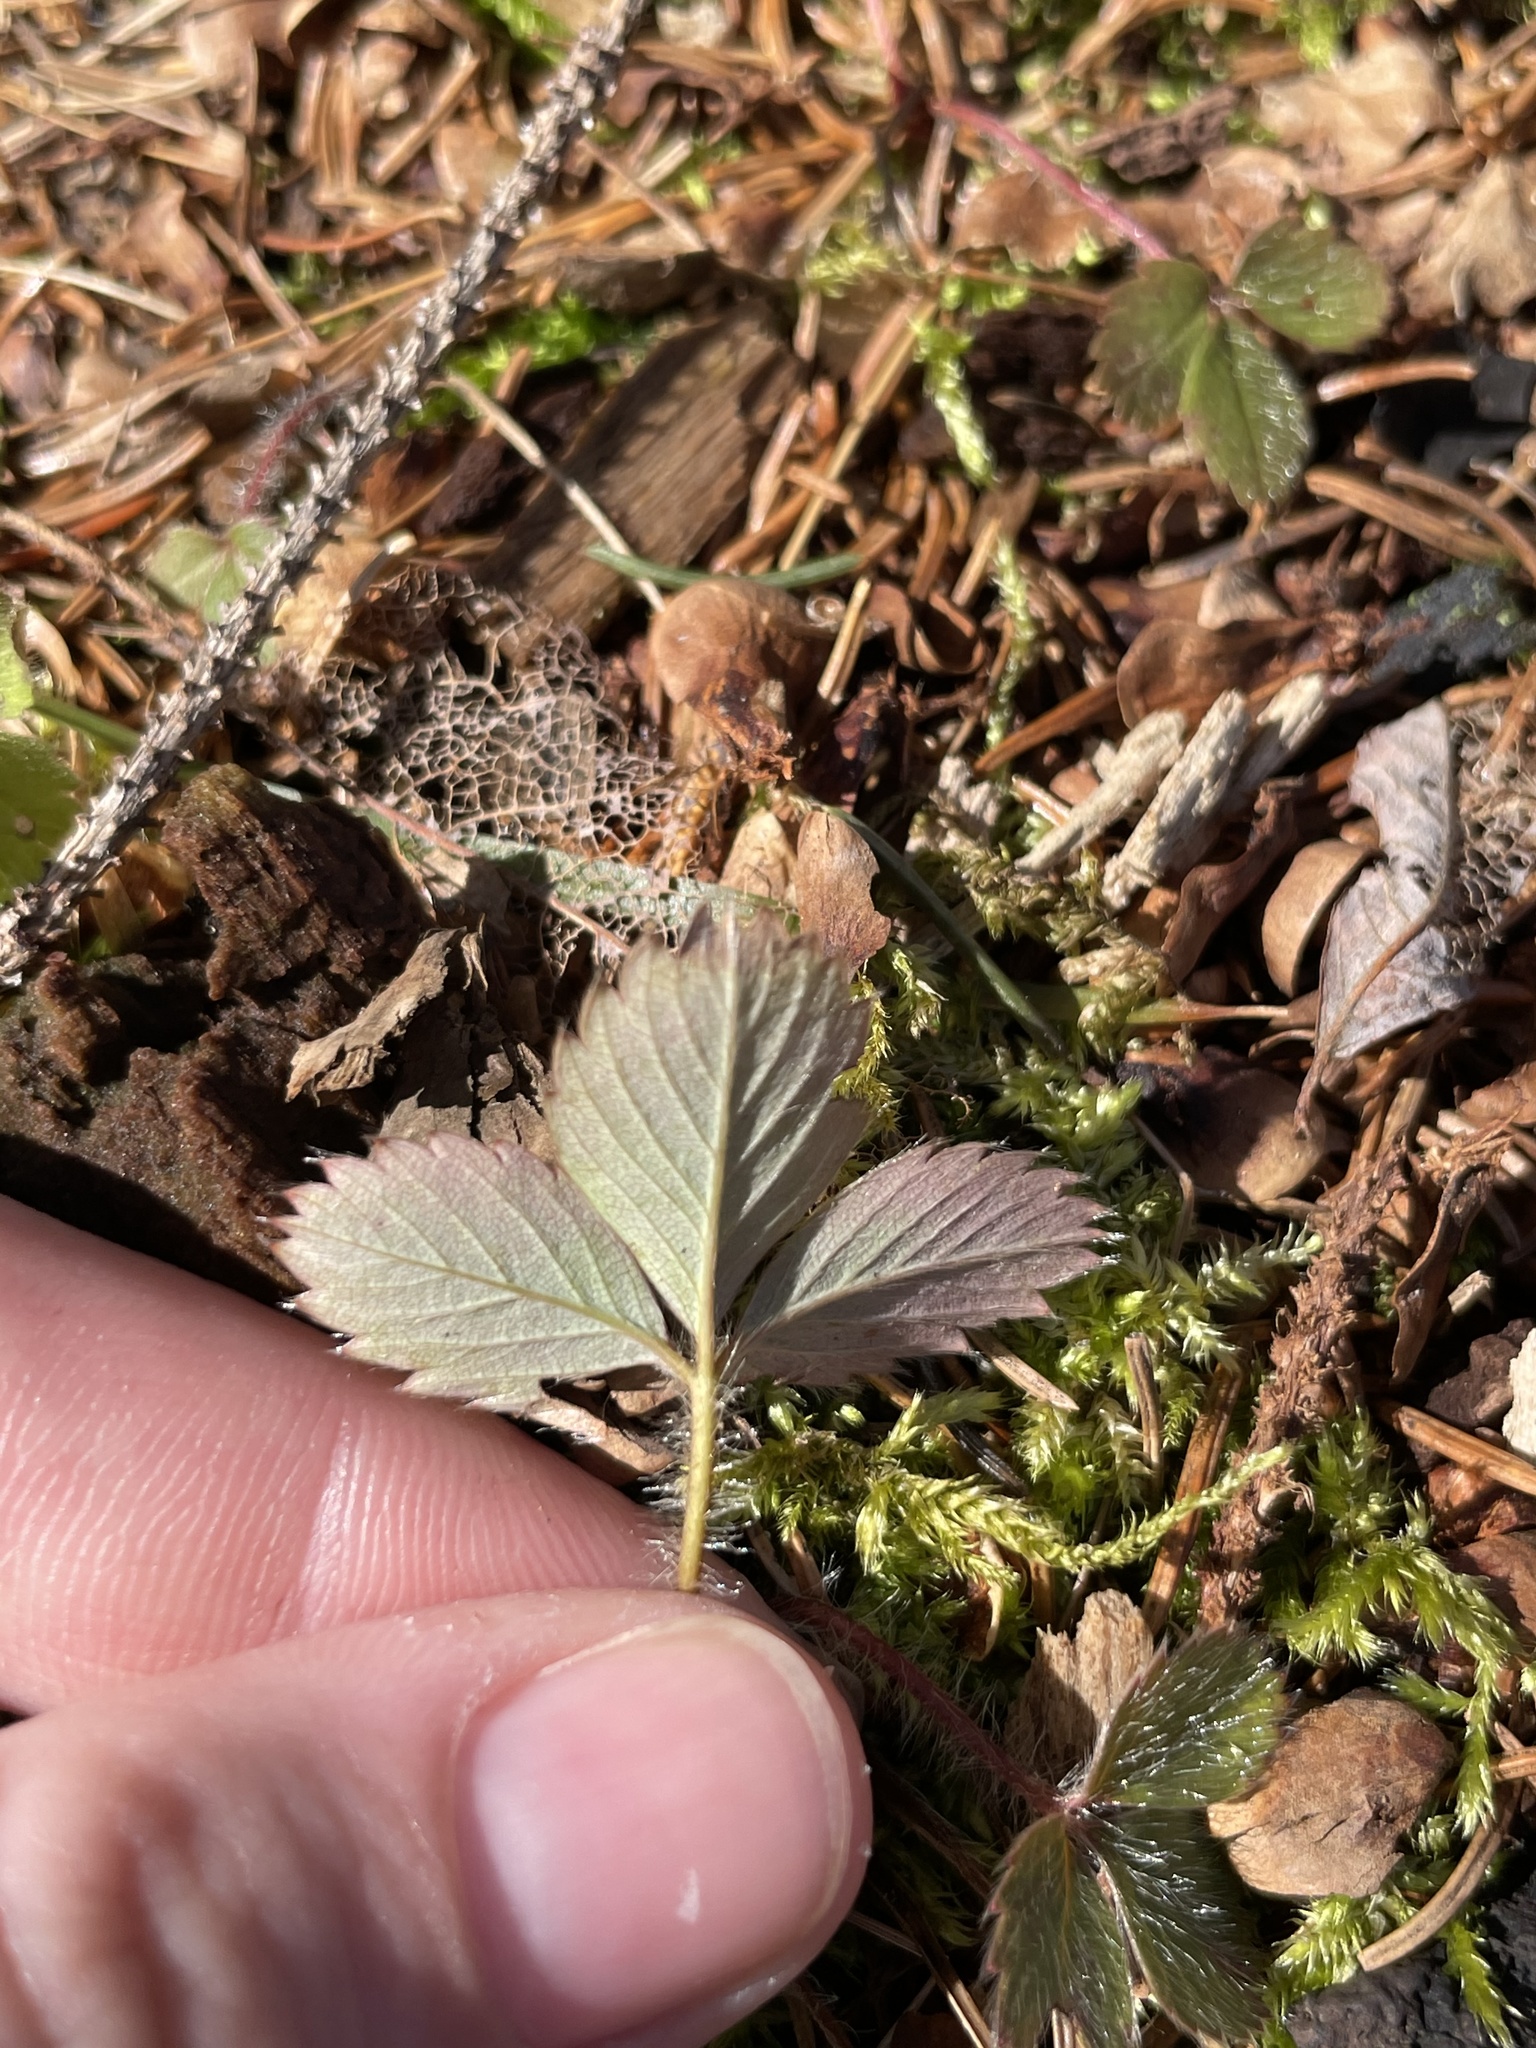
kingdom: Plantae
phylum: Tracheophyta
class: Magnoliopsida
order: Rosales
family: Rosaceae
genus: Fragaria
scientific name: Fragaria virginiana
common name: Thickleaved wild strawberry
